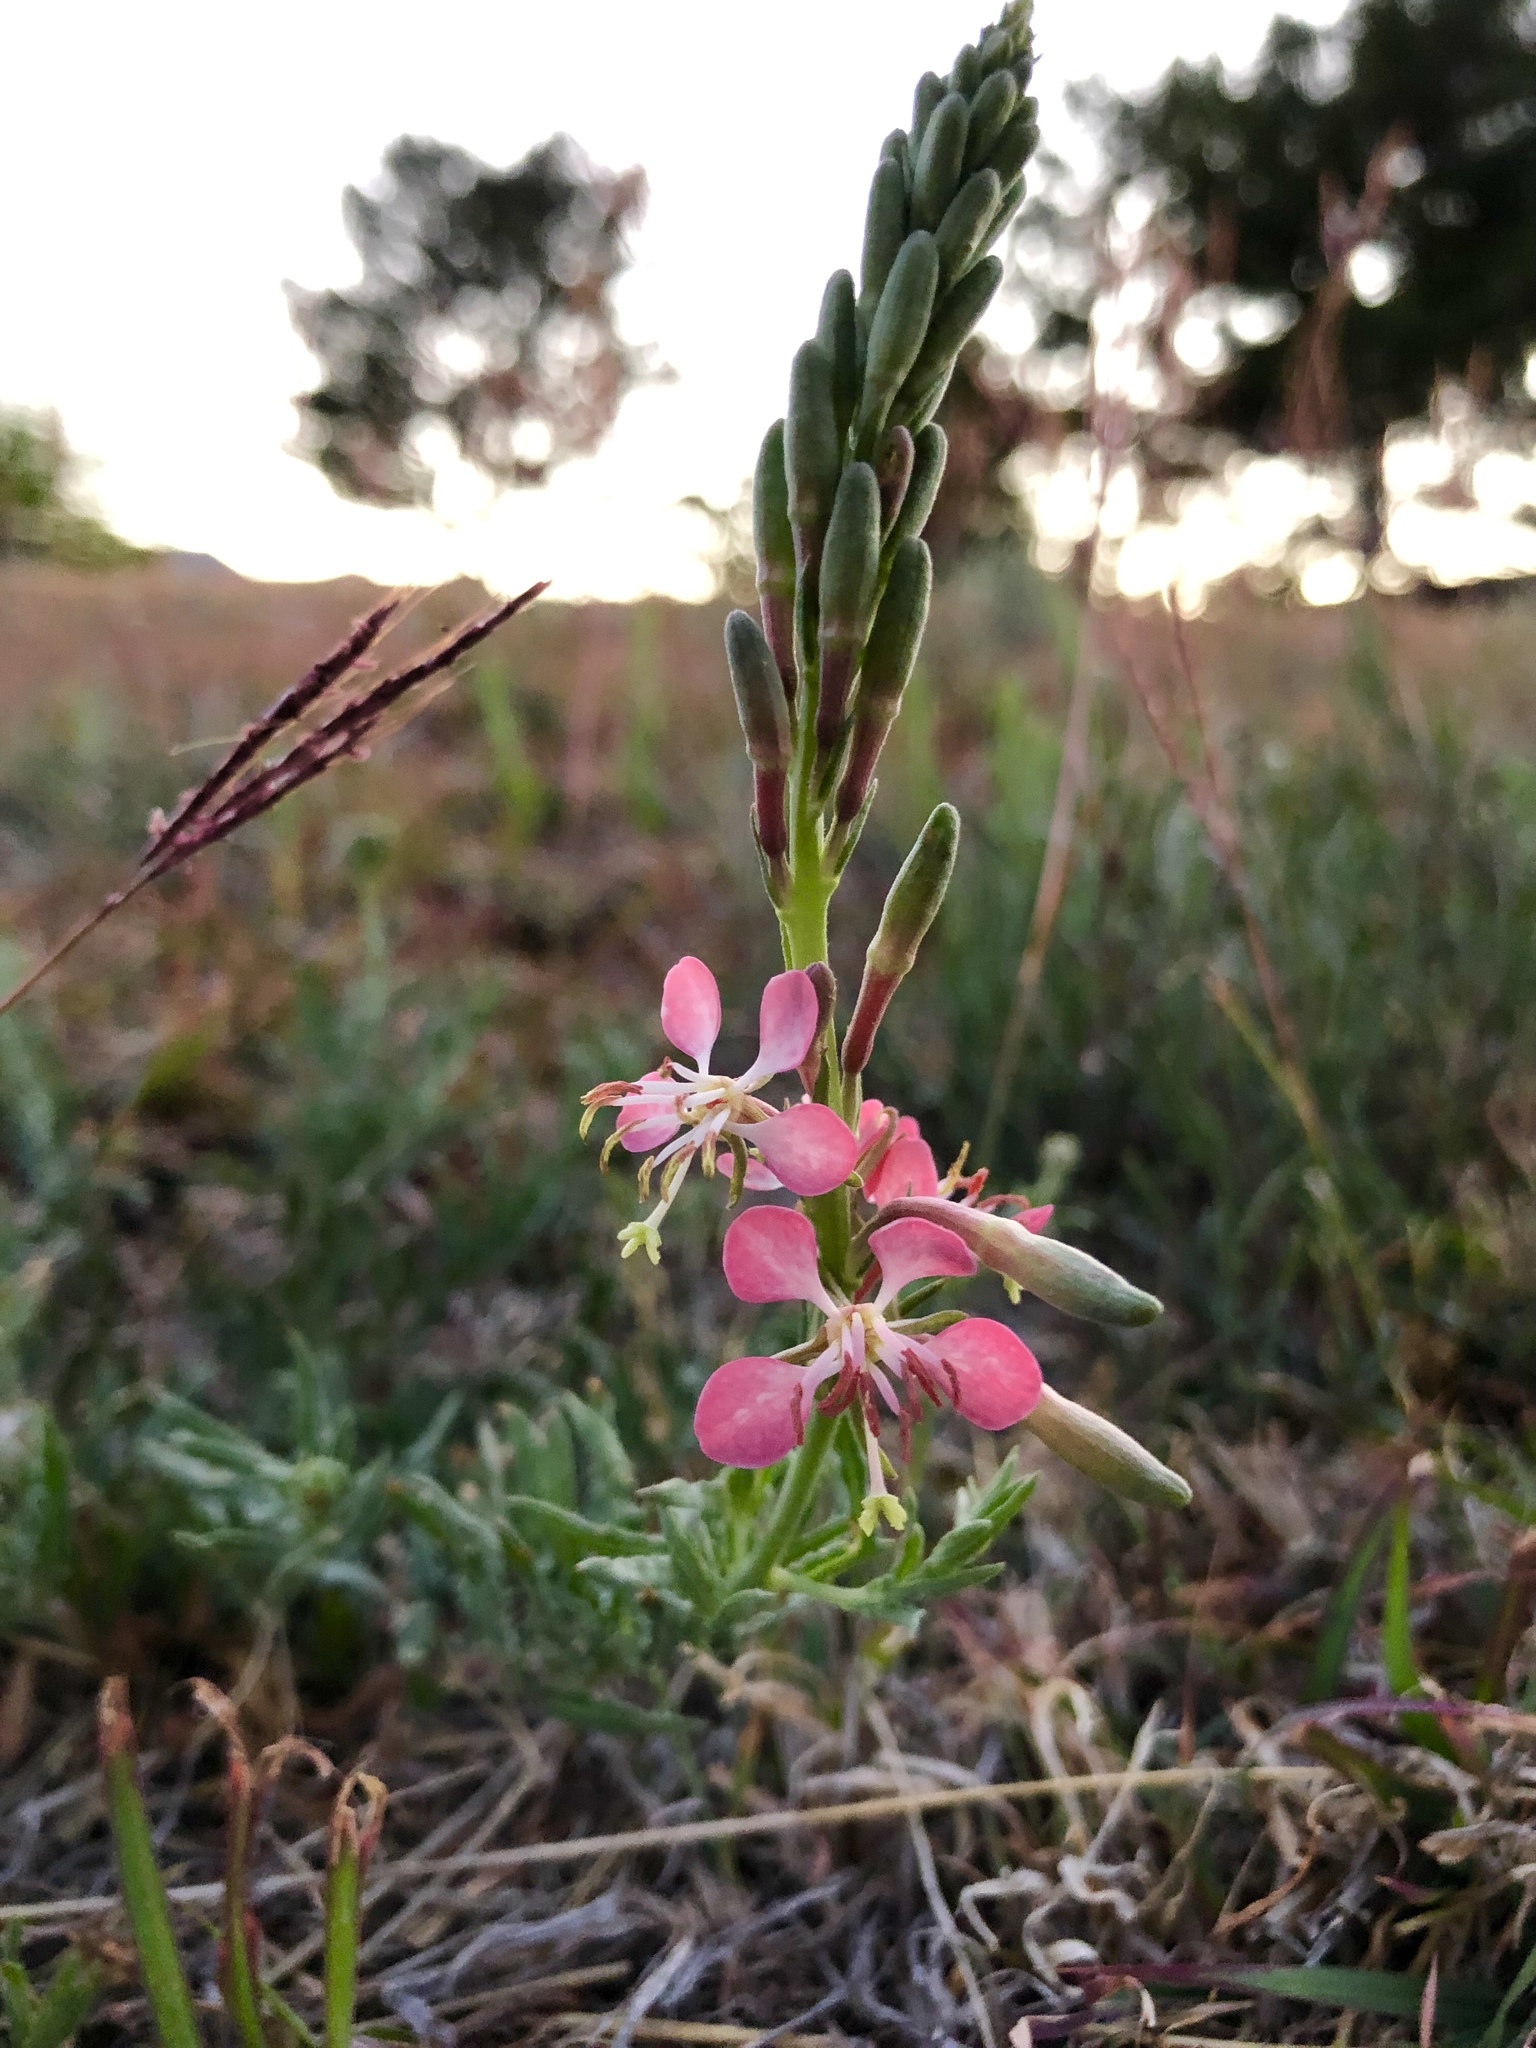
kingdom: Plantae
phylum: Tracheophyta
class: Magnoliopsida
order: Myrtales
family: Onagraceae
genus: Oenothera
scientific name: Oenothera suffrutescens
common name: Scarlet beeblossom
